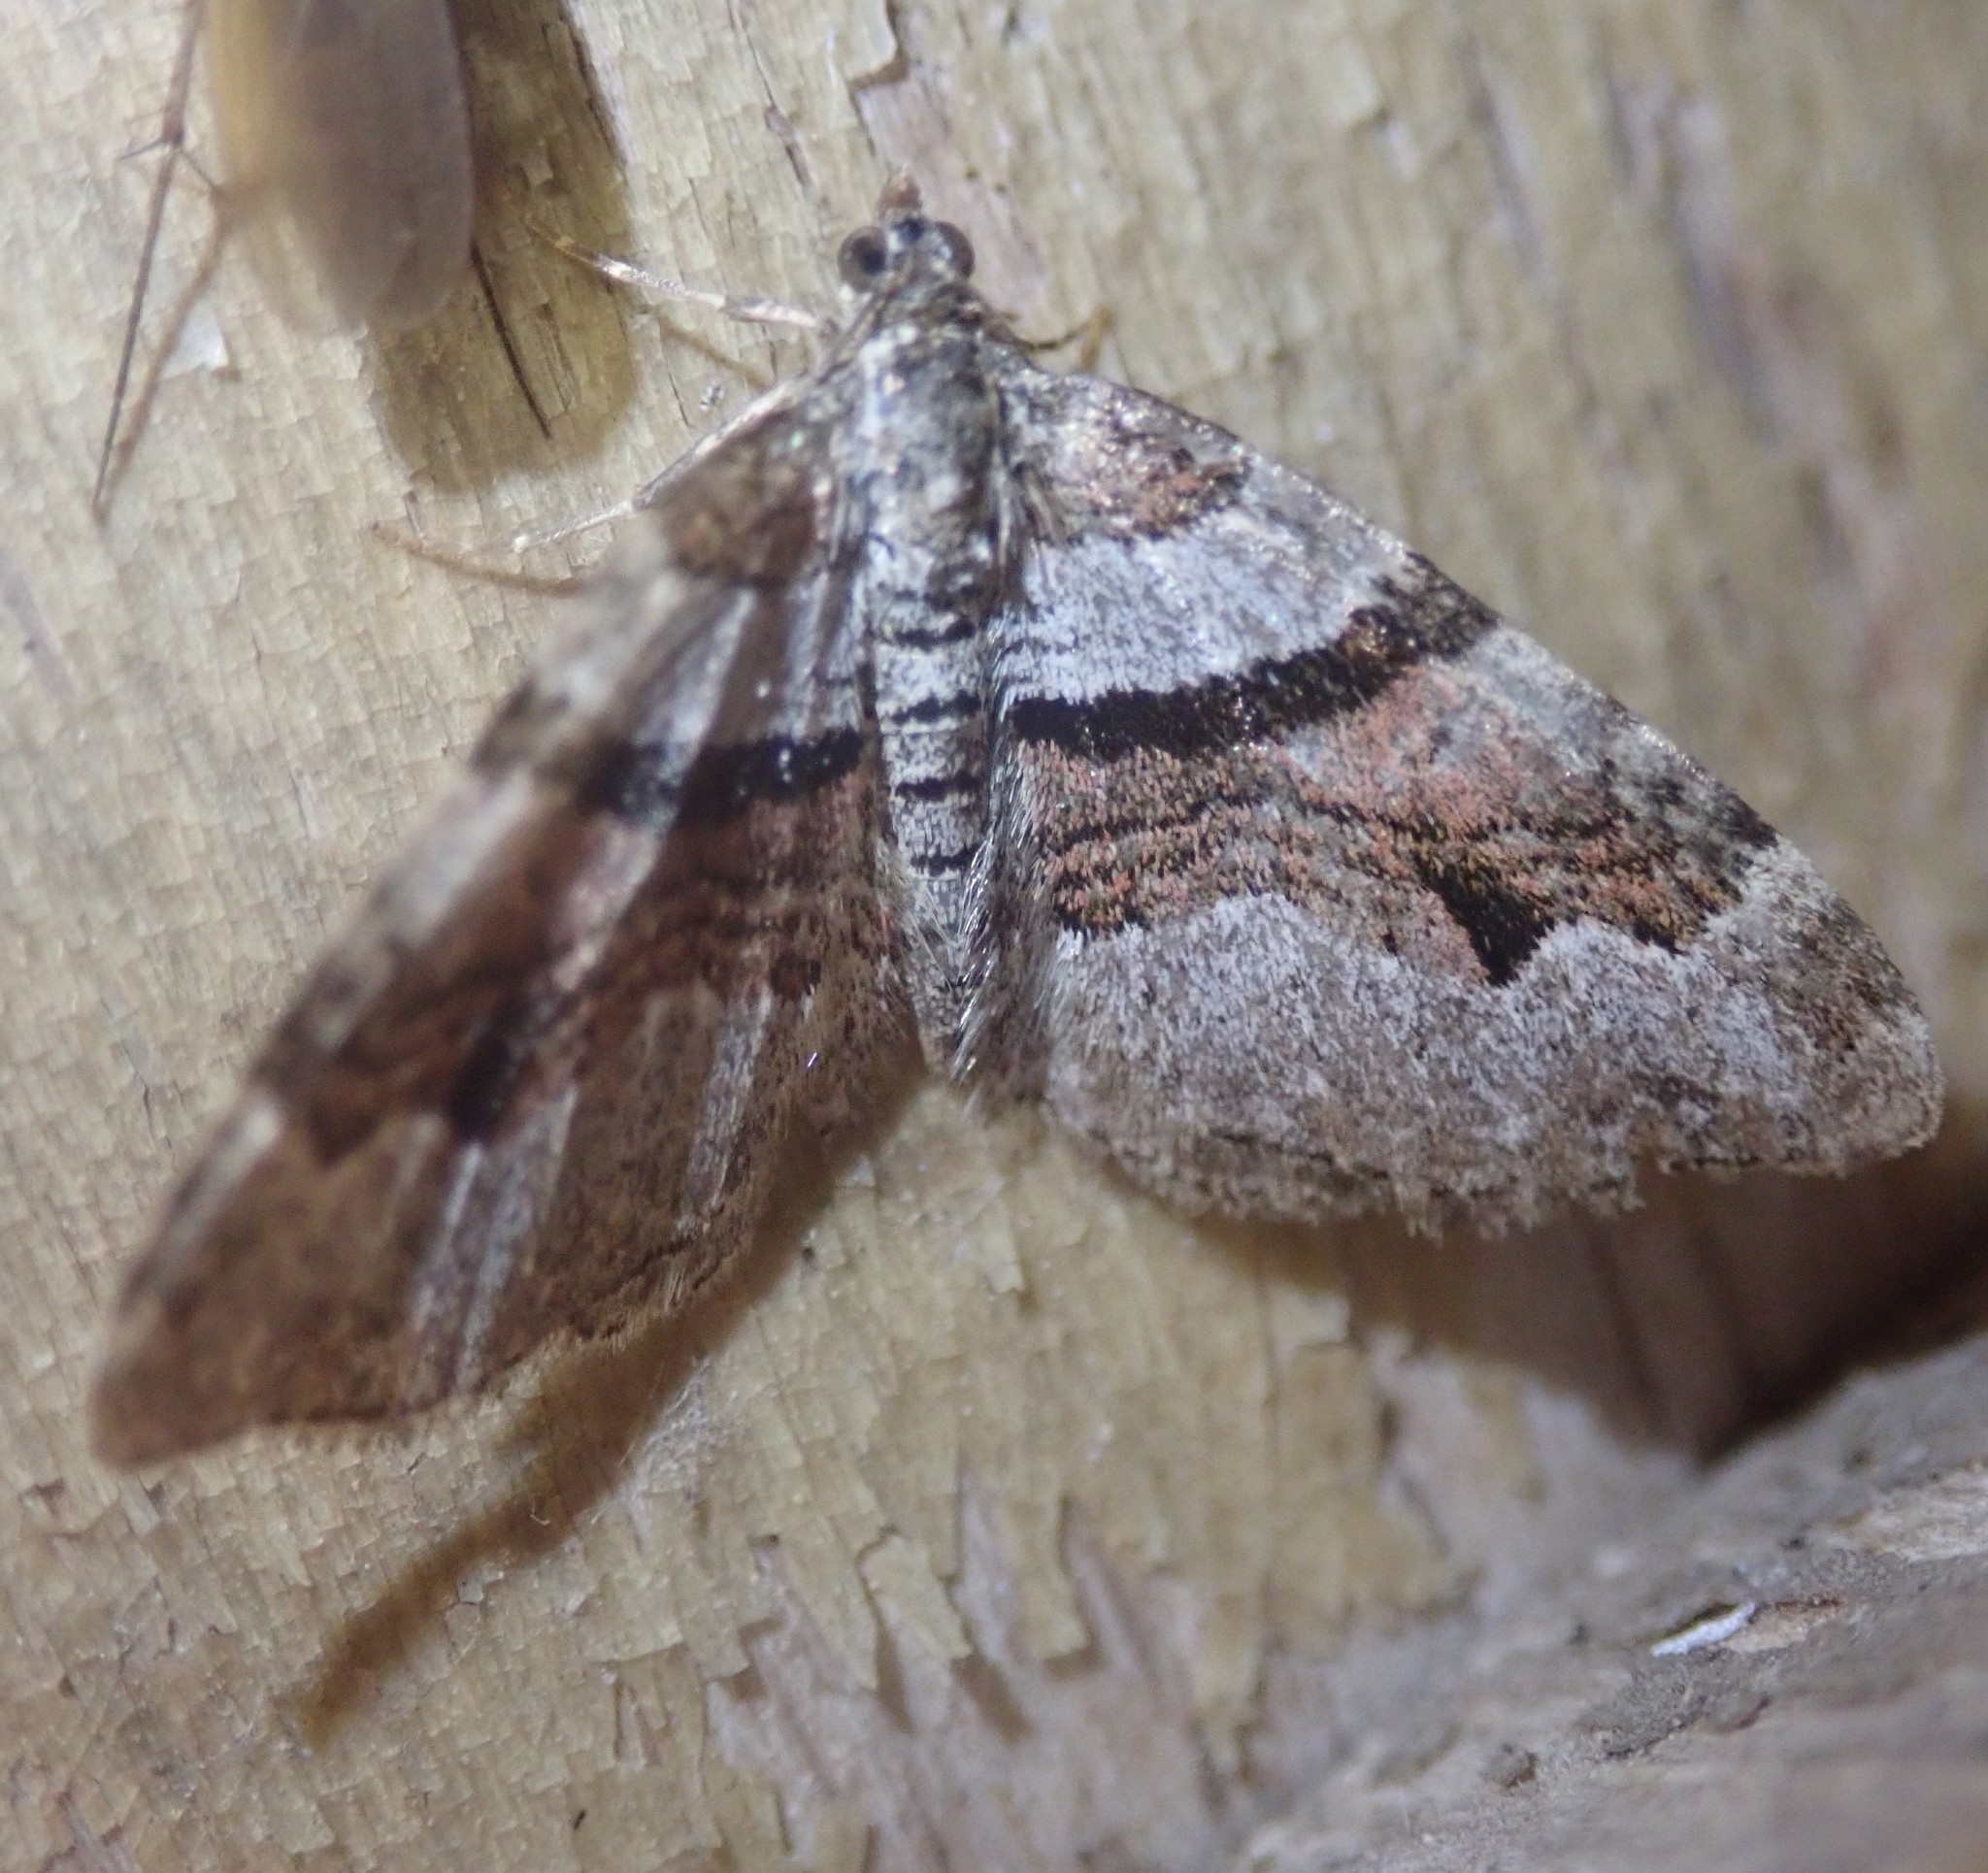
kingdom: Animalia
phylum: Arthropoda
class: Insecta
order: Lepidoptera
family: Geometridae
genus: Xanthorhoe
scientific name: Xanthorhoe designata
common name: Flame carpet
